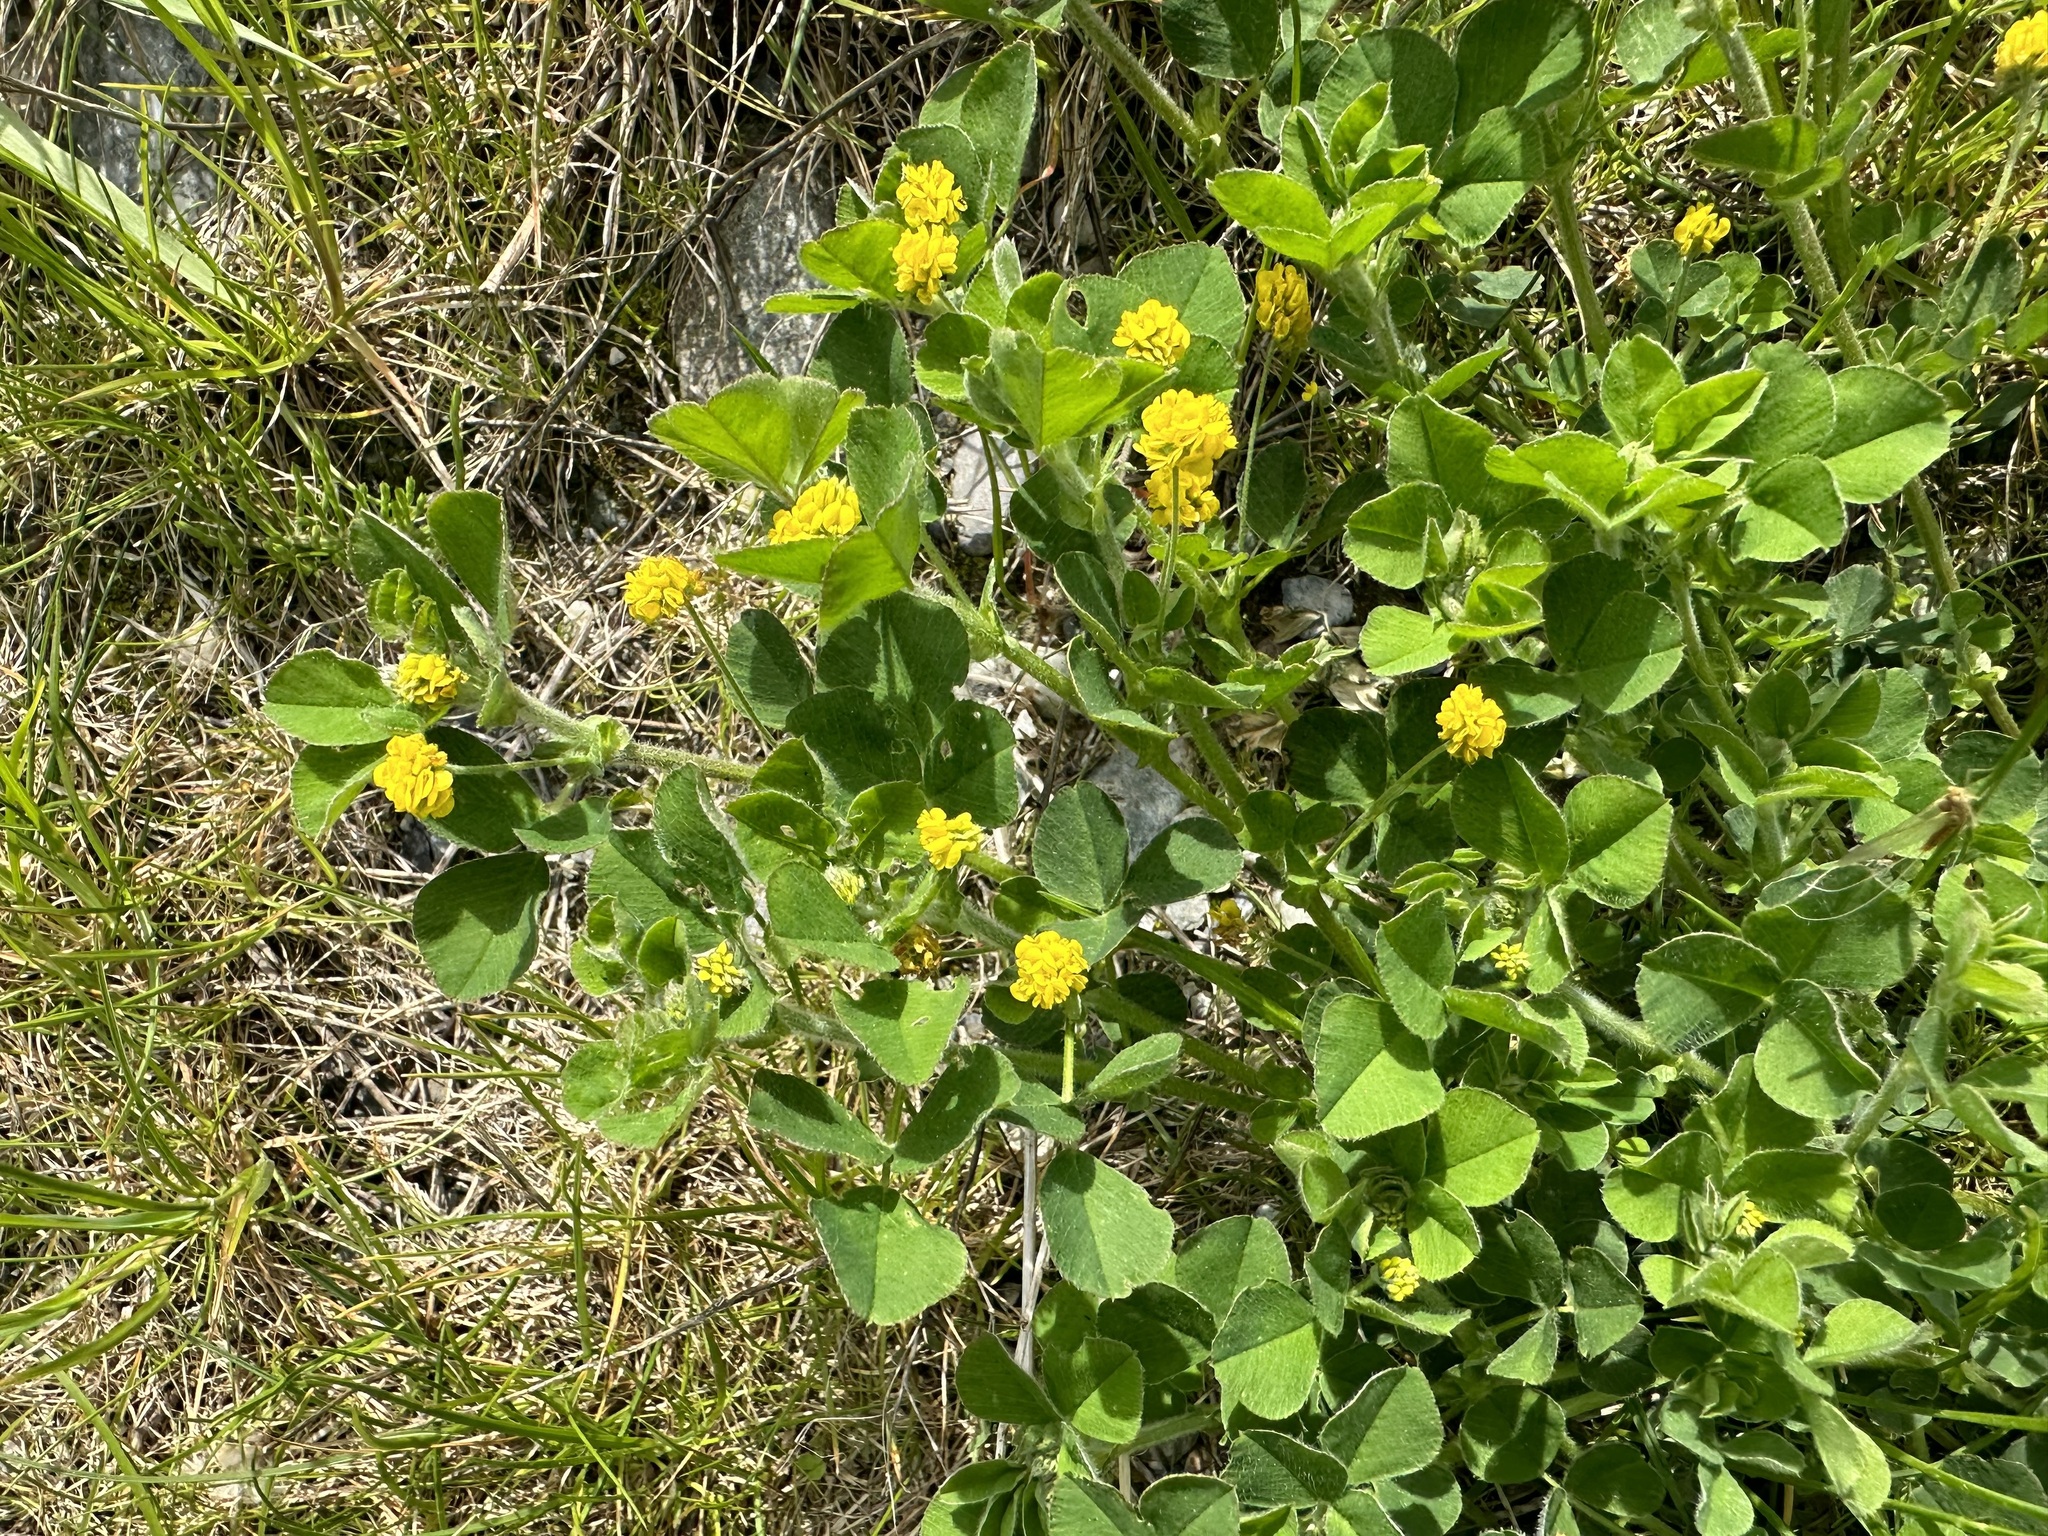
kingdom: Plantae
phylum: Tracheophyta
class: Magnoliopsida
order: Fabales
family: Fabaceae
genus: Medicago
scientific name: Medicago lupulina
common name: Black medick
